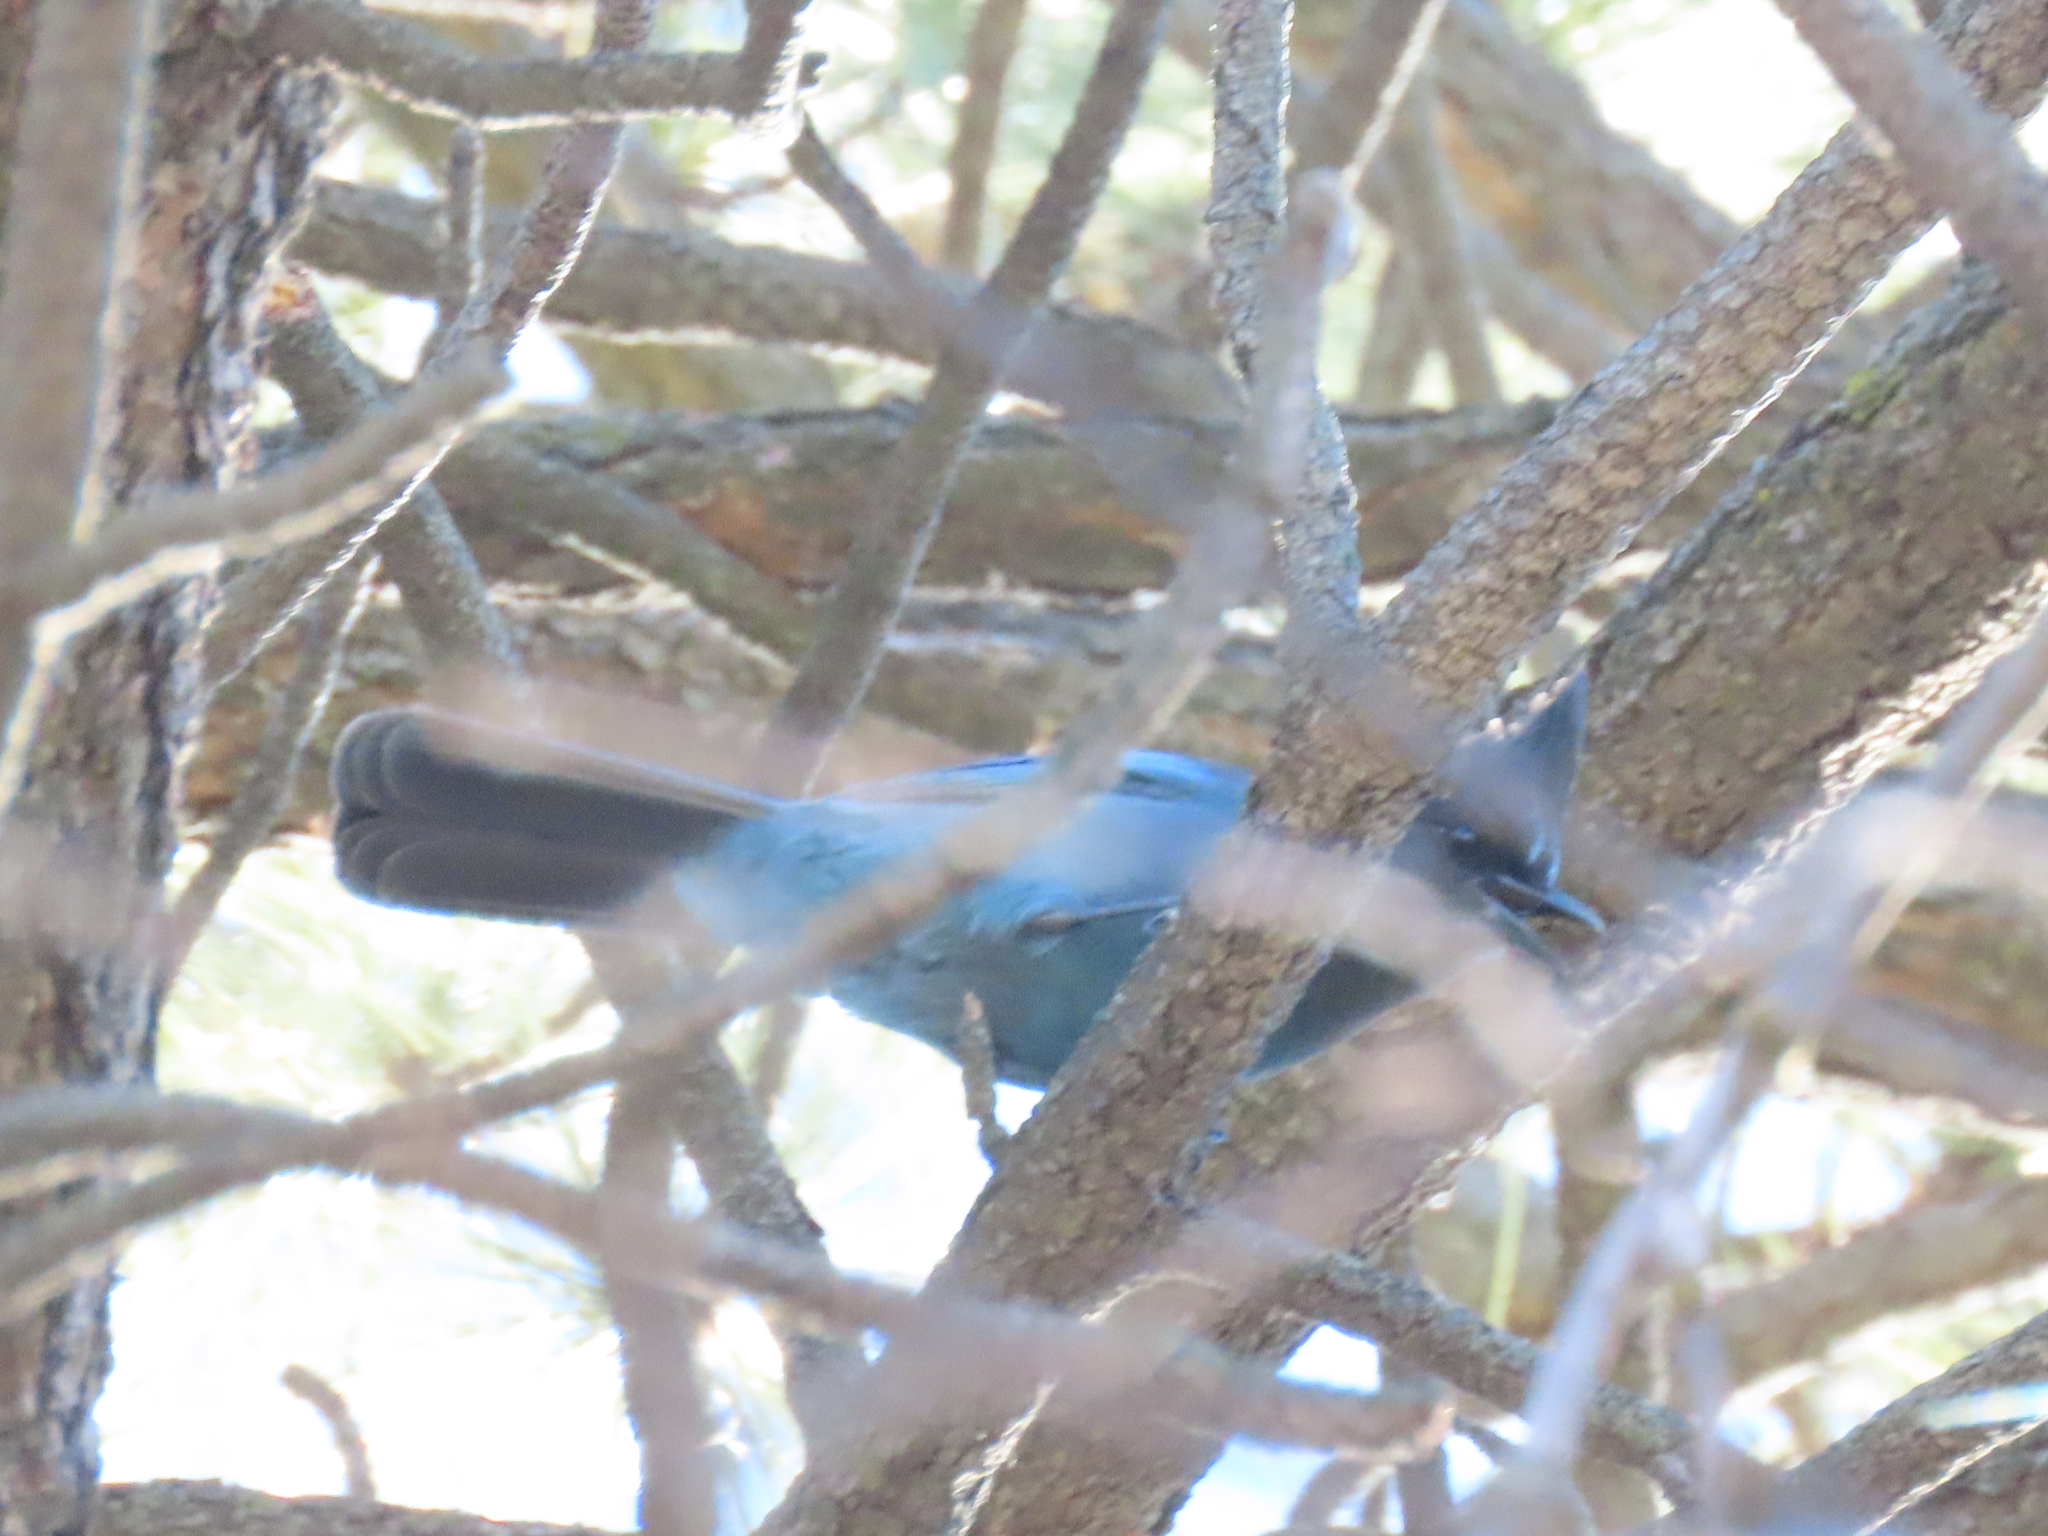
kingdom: Animalia
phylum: Chordata
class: Aves
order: Passeriformes
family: Corvidae
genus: Cyanocitta
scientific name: Cyanocitta stelleri
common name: Steller's jay
